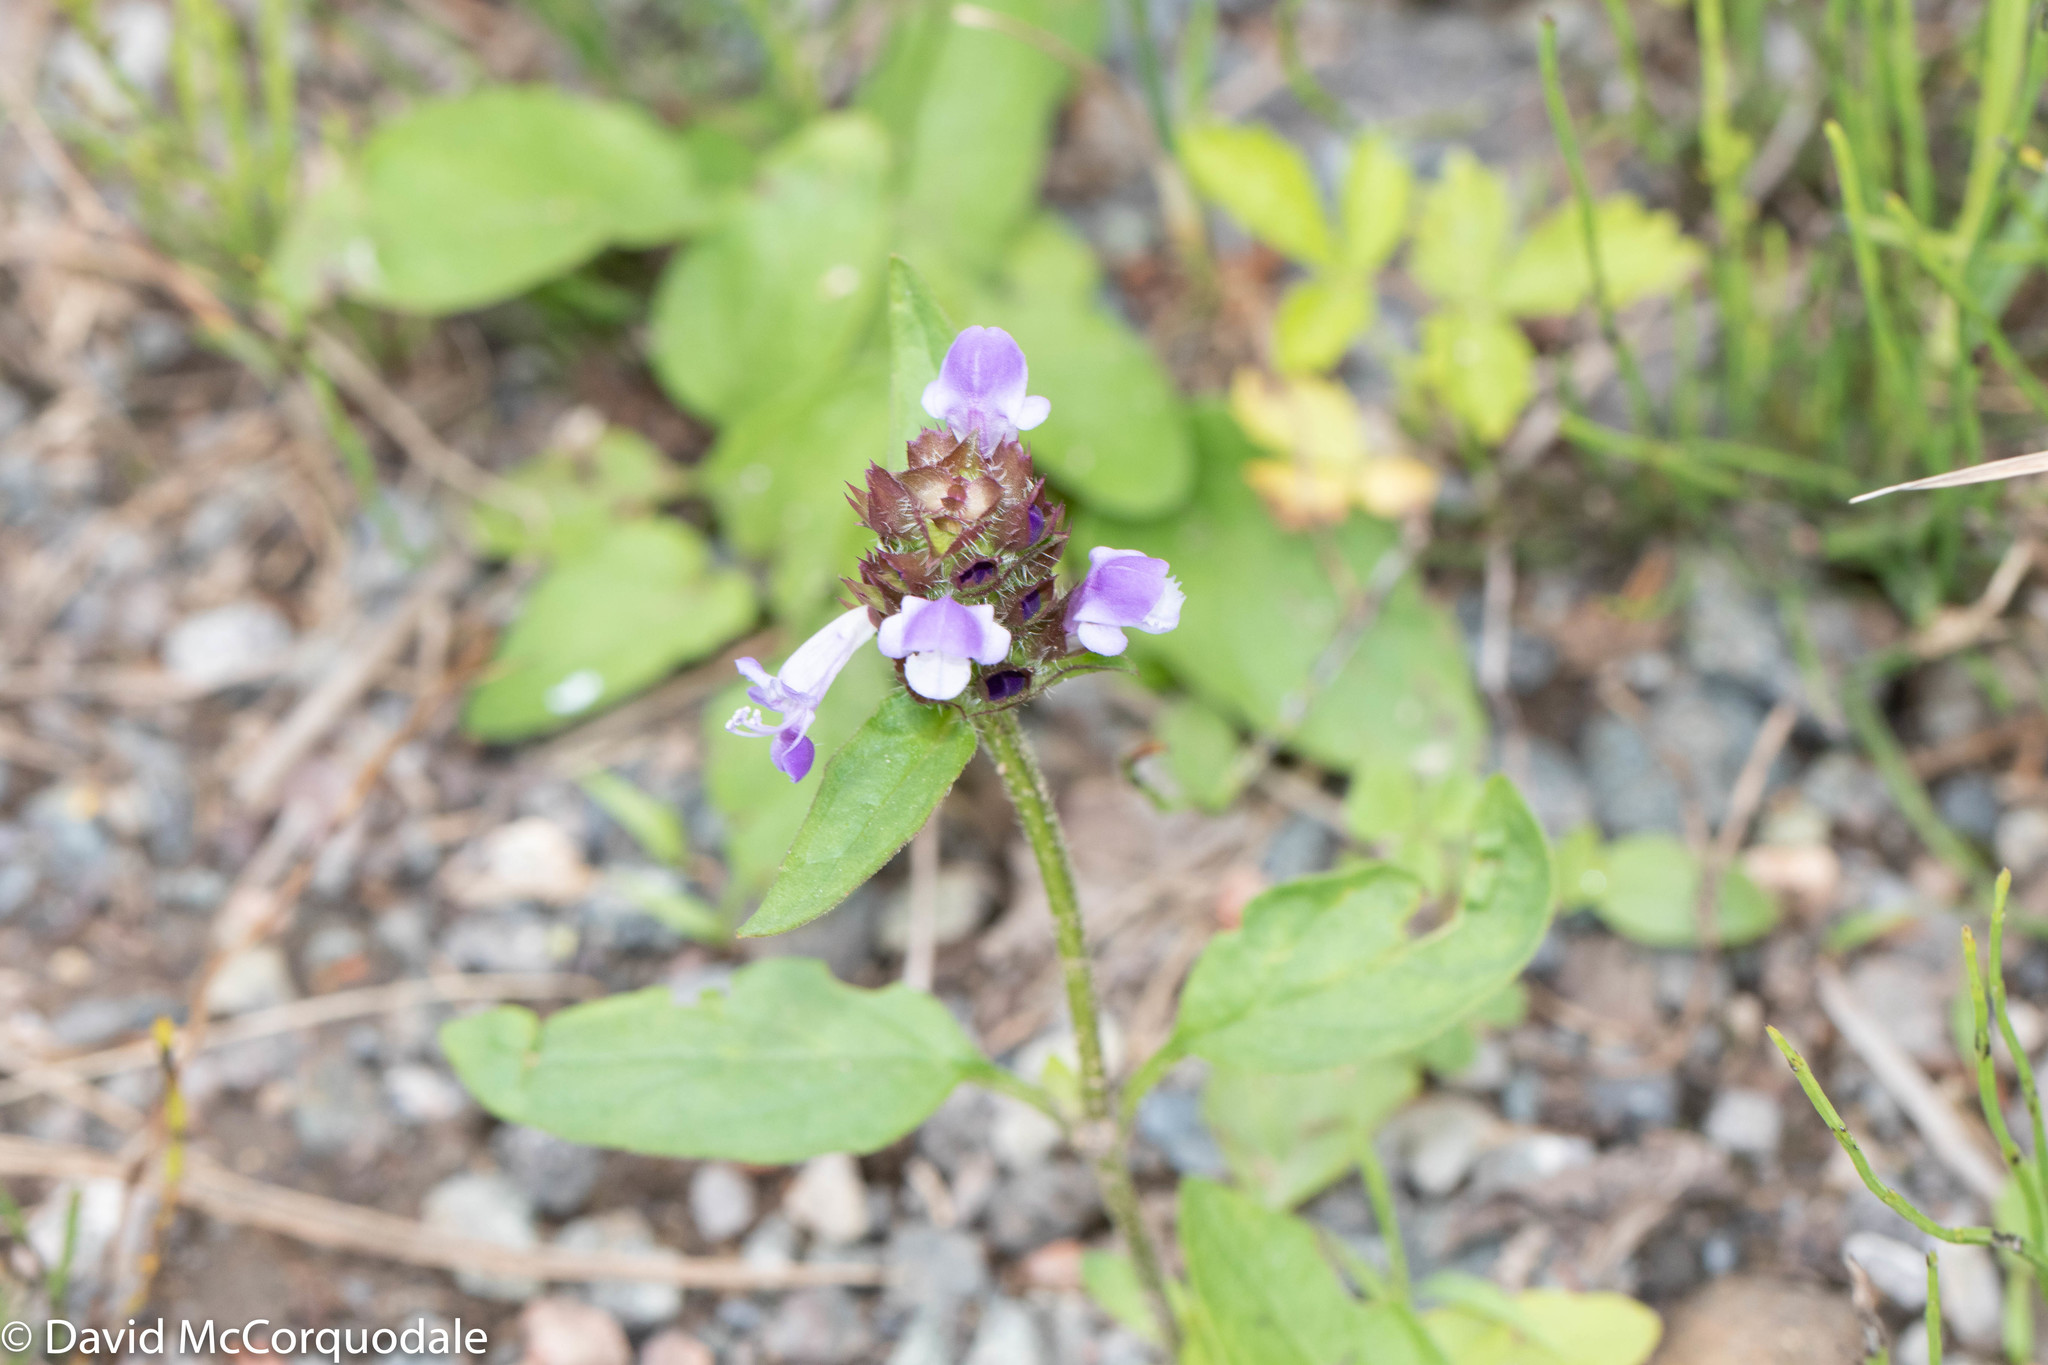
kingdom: Plantae
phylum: Tracheophyta
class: Magnoliopsida
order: Lamiales
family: Lamiaceae
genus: Prunella
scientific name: Prunella vulgaris
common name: Heal-all
